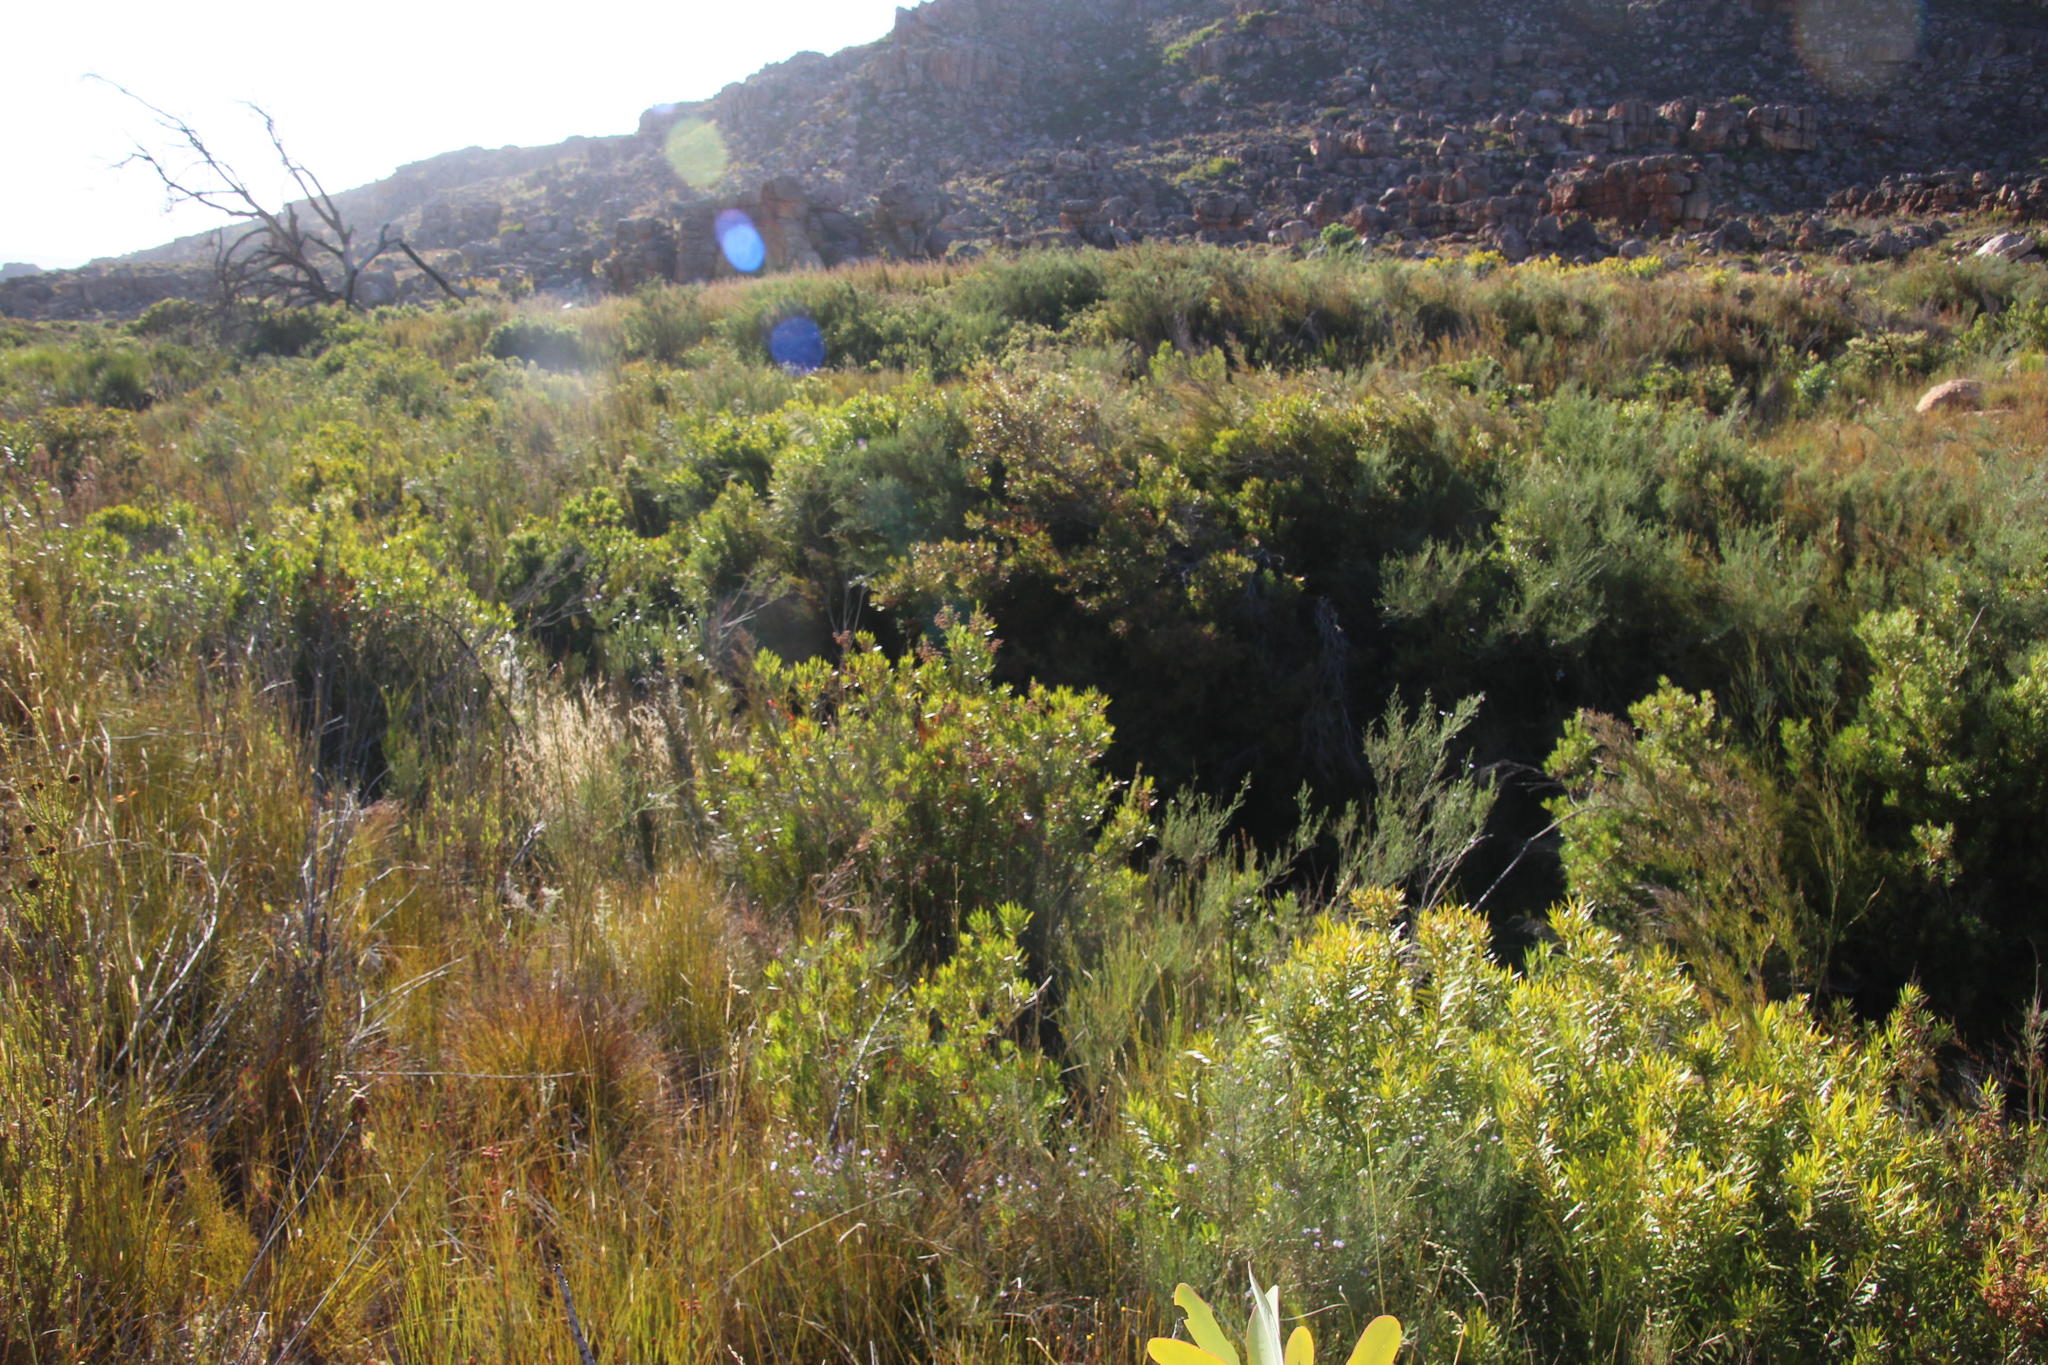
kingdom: Plantae
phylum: Tracheophyta
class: Magnoliopsida
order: Myrtales
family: Myrtaceae
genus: Callistemon
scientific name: Callistemon lanceolatus
